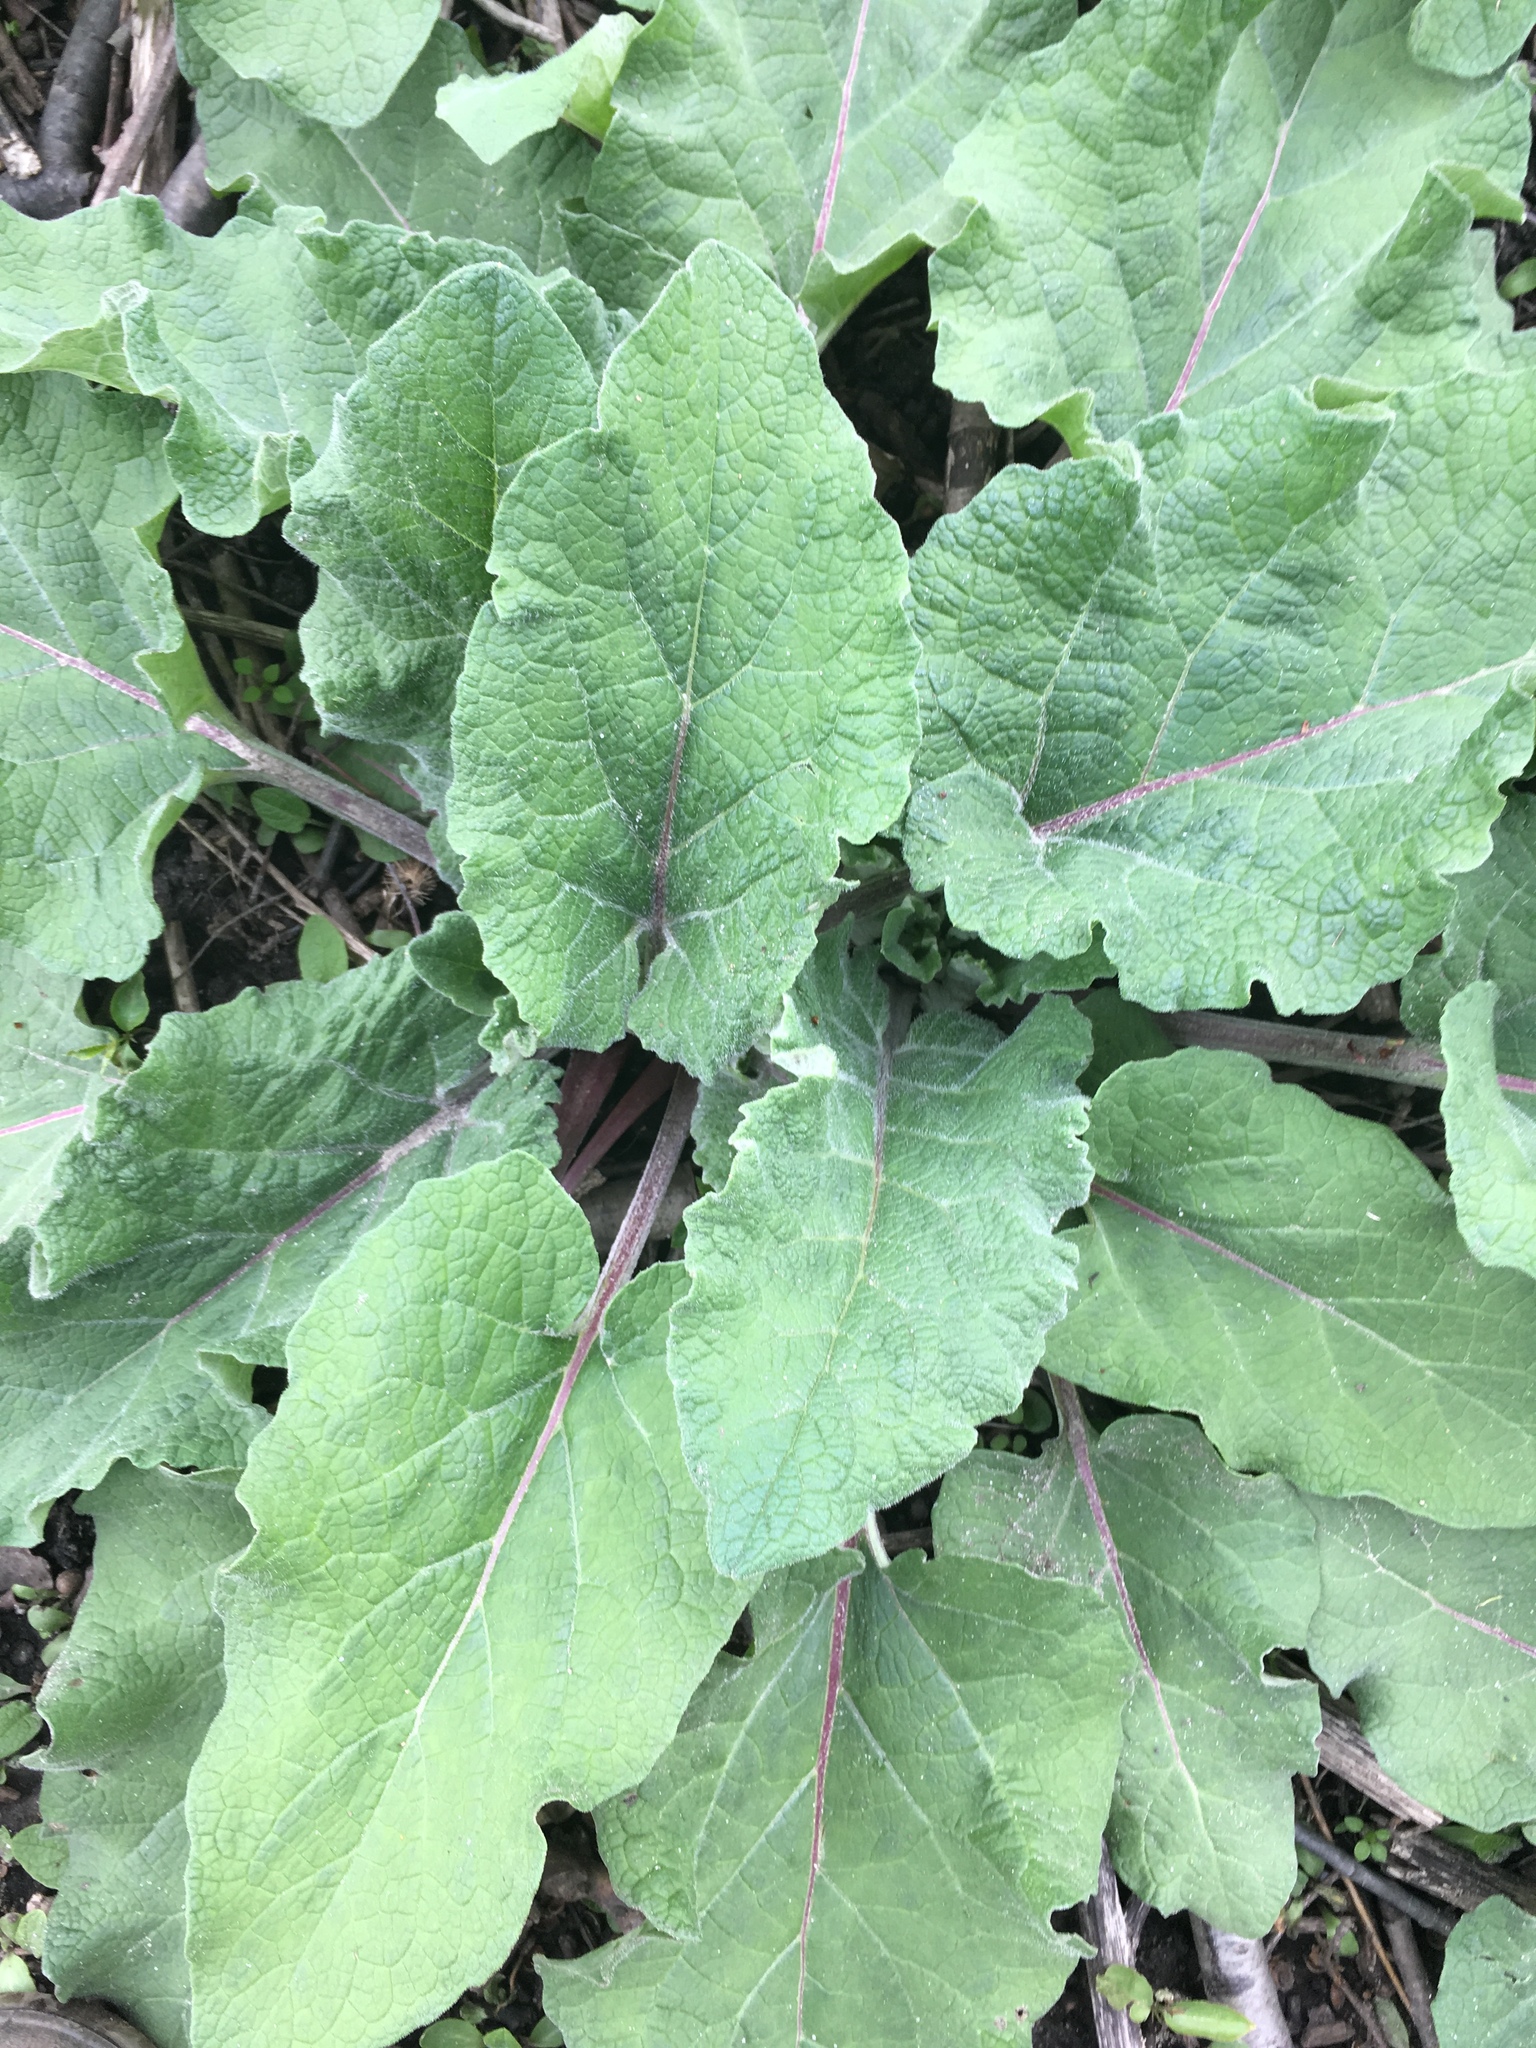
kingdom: Plantae
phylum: Tracheophyta
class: Magnoliopsida
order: Asterales
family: Asteraceae
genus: Arctium
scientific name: Arctium
